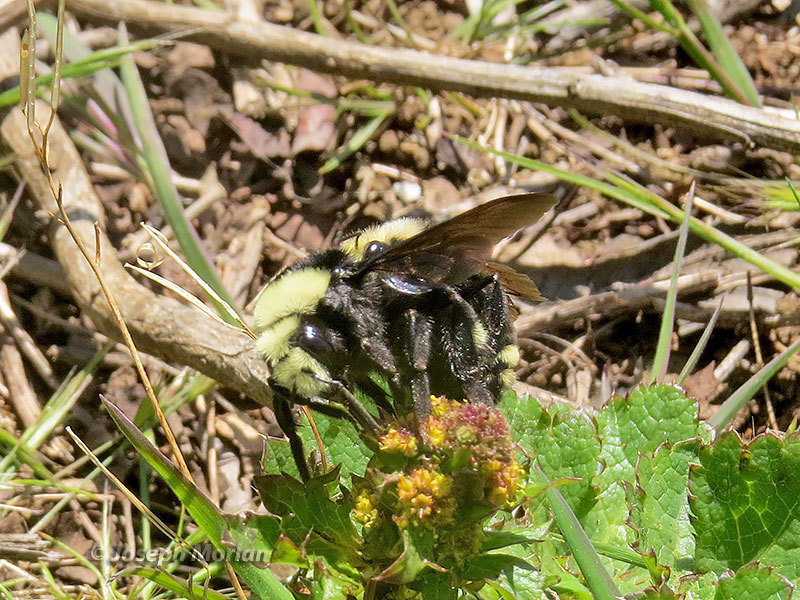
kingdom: Animalia
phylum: Arthropoda
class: Insecta
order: Hymenoptera
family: Apidae
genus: Pyrobombus
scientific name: Pyrobombus
